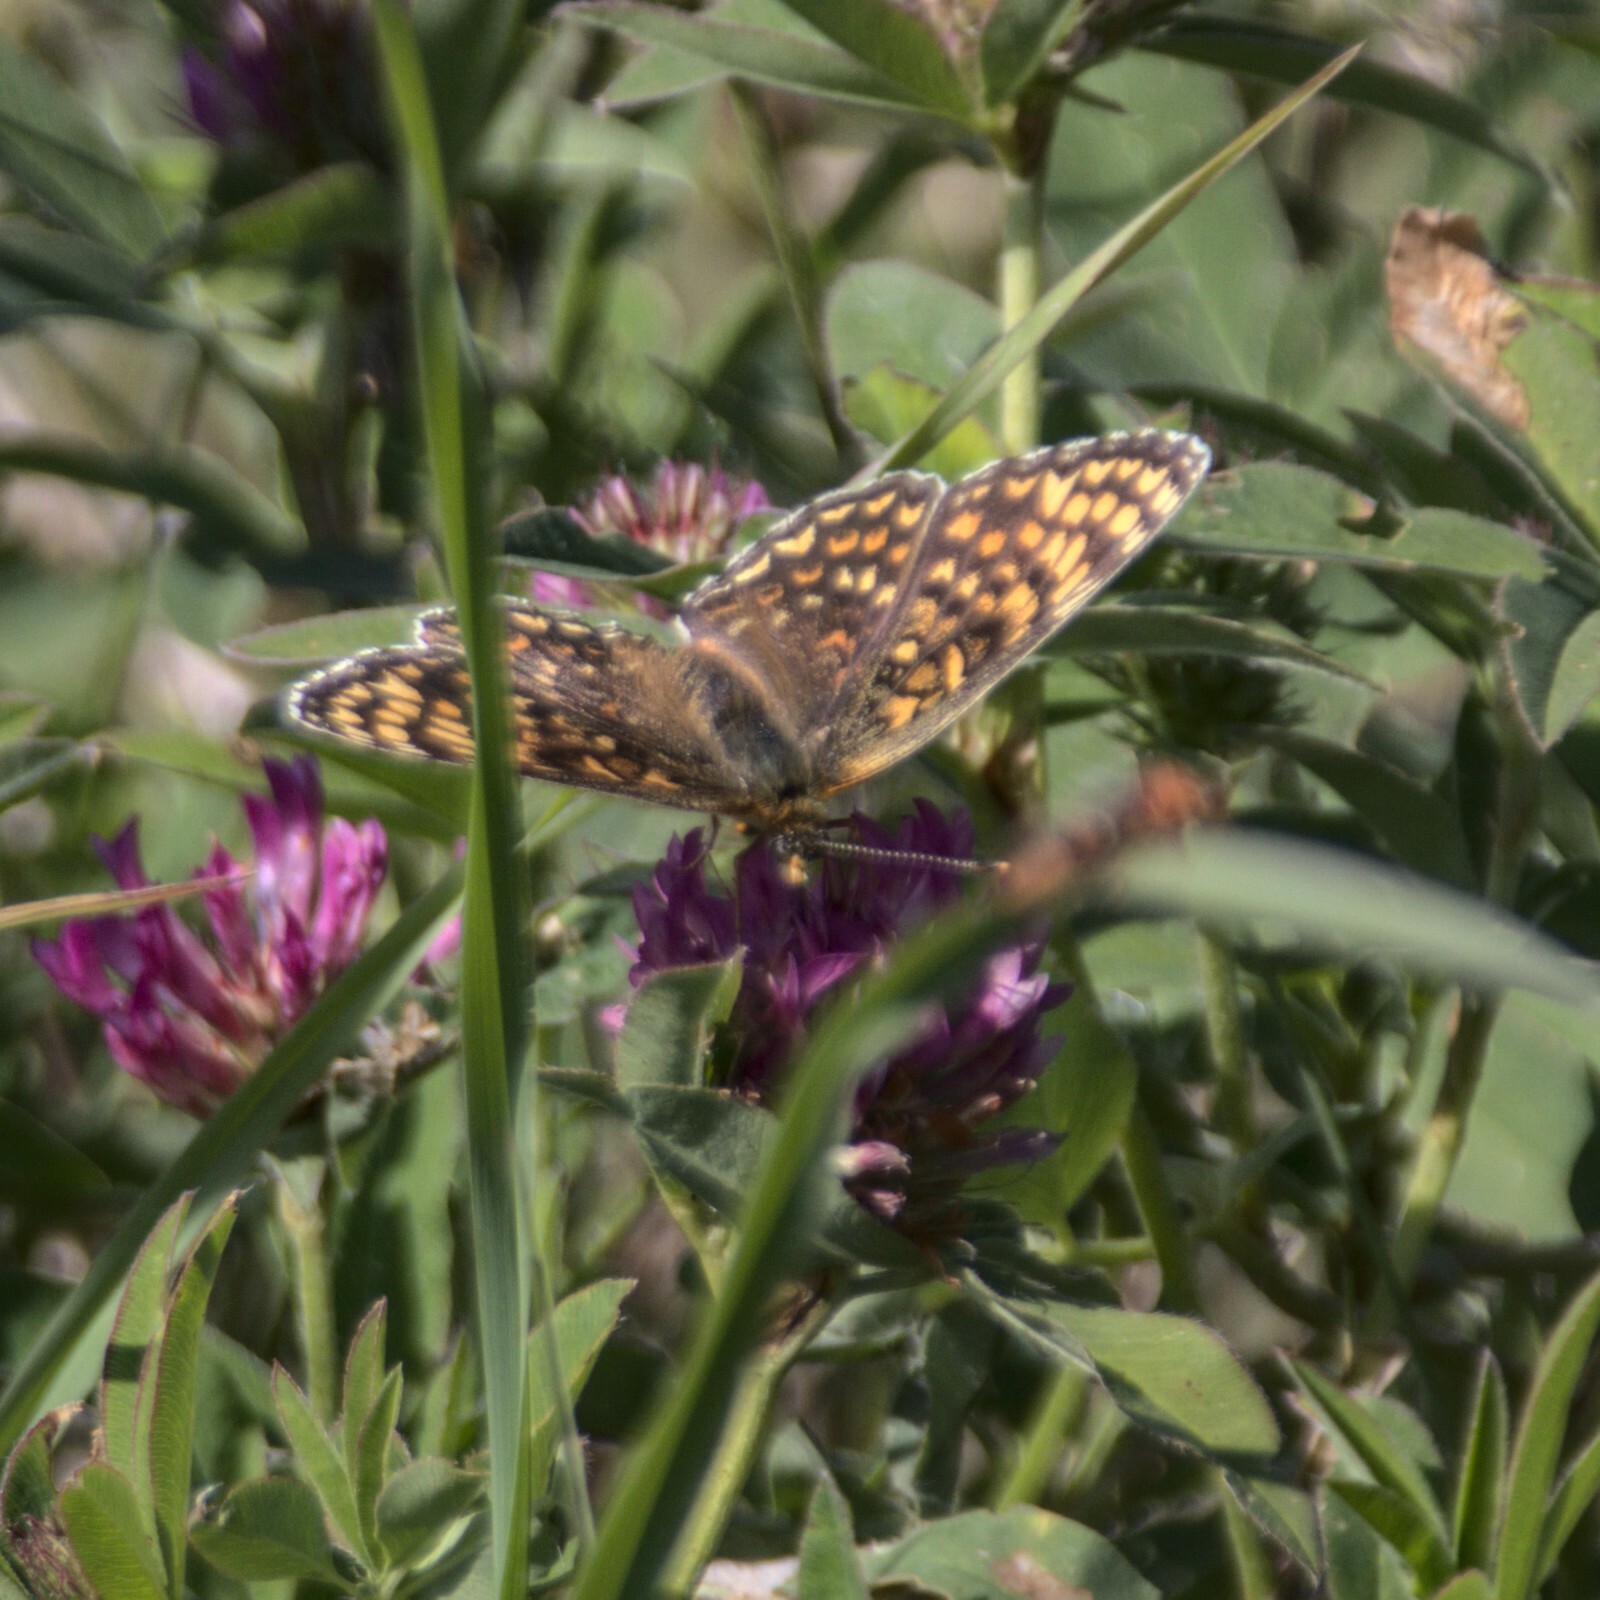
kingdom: Animalia
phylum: Arthropoda
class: Insecta
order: Lepidoptera
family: Nymphalidae
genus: Melitaea
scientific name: Melitaea phoebe
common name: Knapweed fritillary
